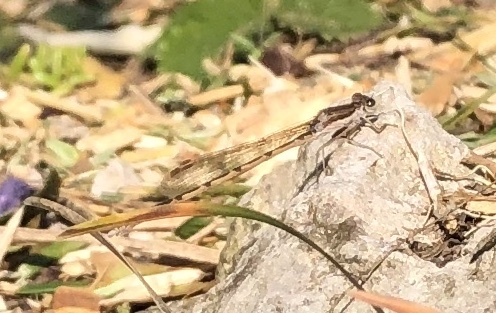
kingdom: Animalia
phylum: Arthropoda
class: Insecta
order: Odonata
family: Lestidae
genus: Sympecma
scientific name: Sympecma fusca
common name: Common winter damsel
